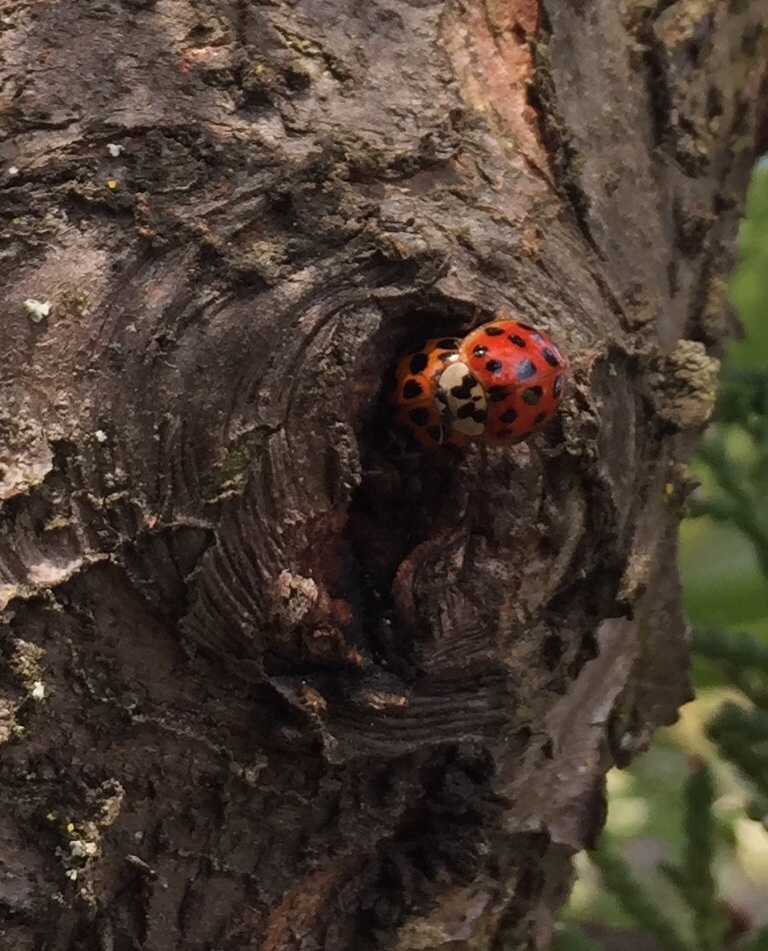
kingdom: Animalia
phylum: Arthropoda
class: Insecta
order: Coleoptera
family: Coccinellidae
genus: Harmonia
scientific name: Harmonia axyridis
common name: Harlequin ladybird
